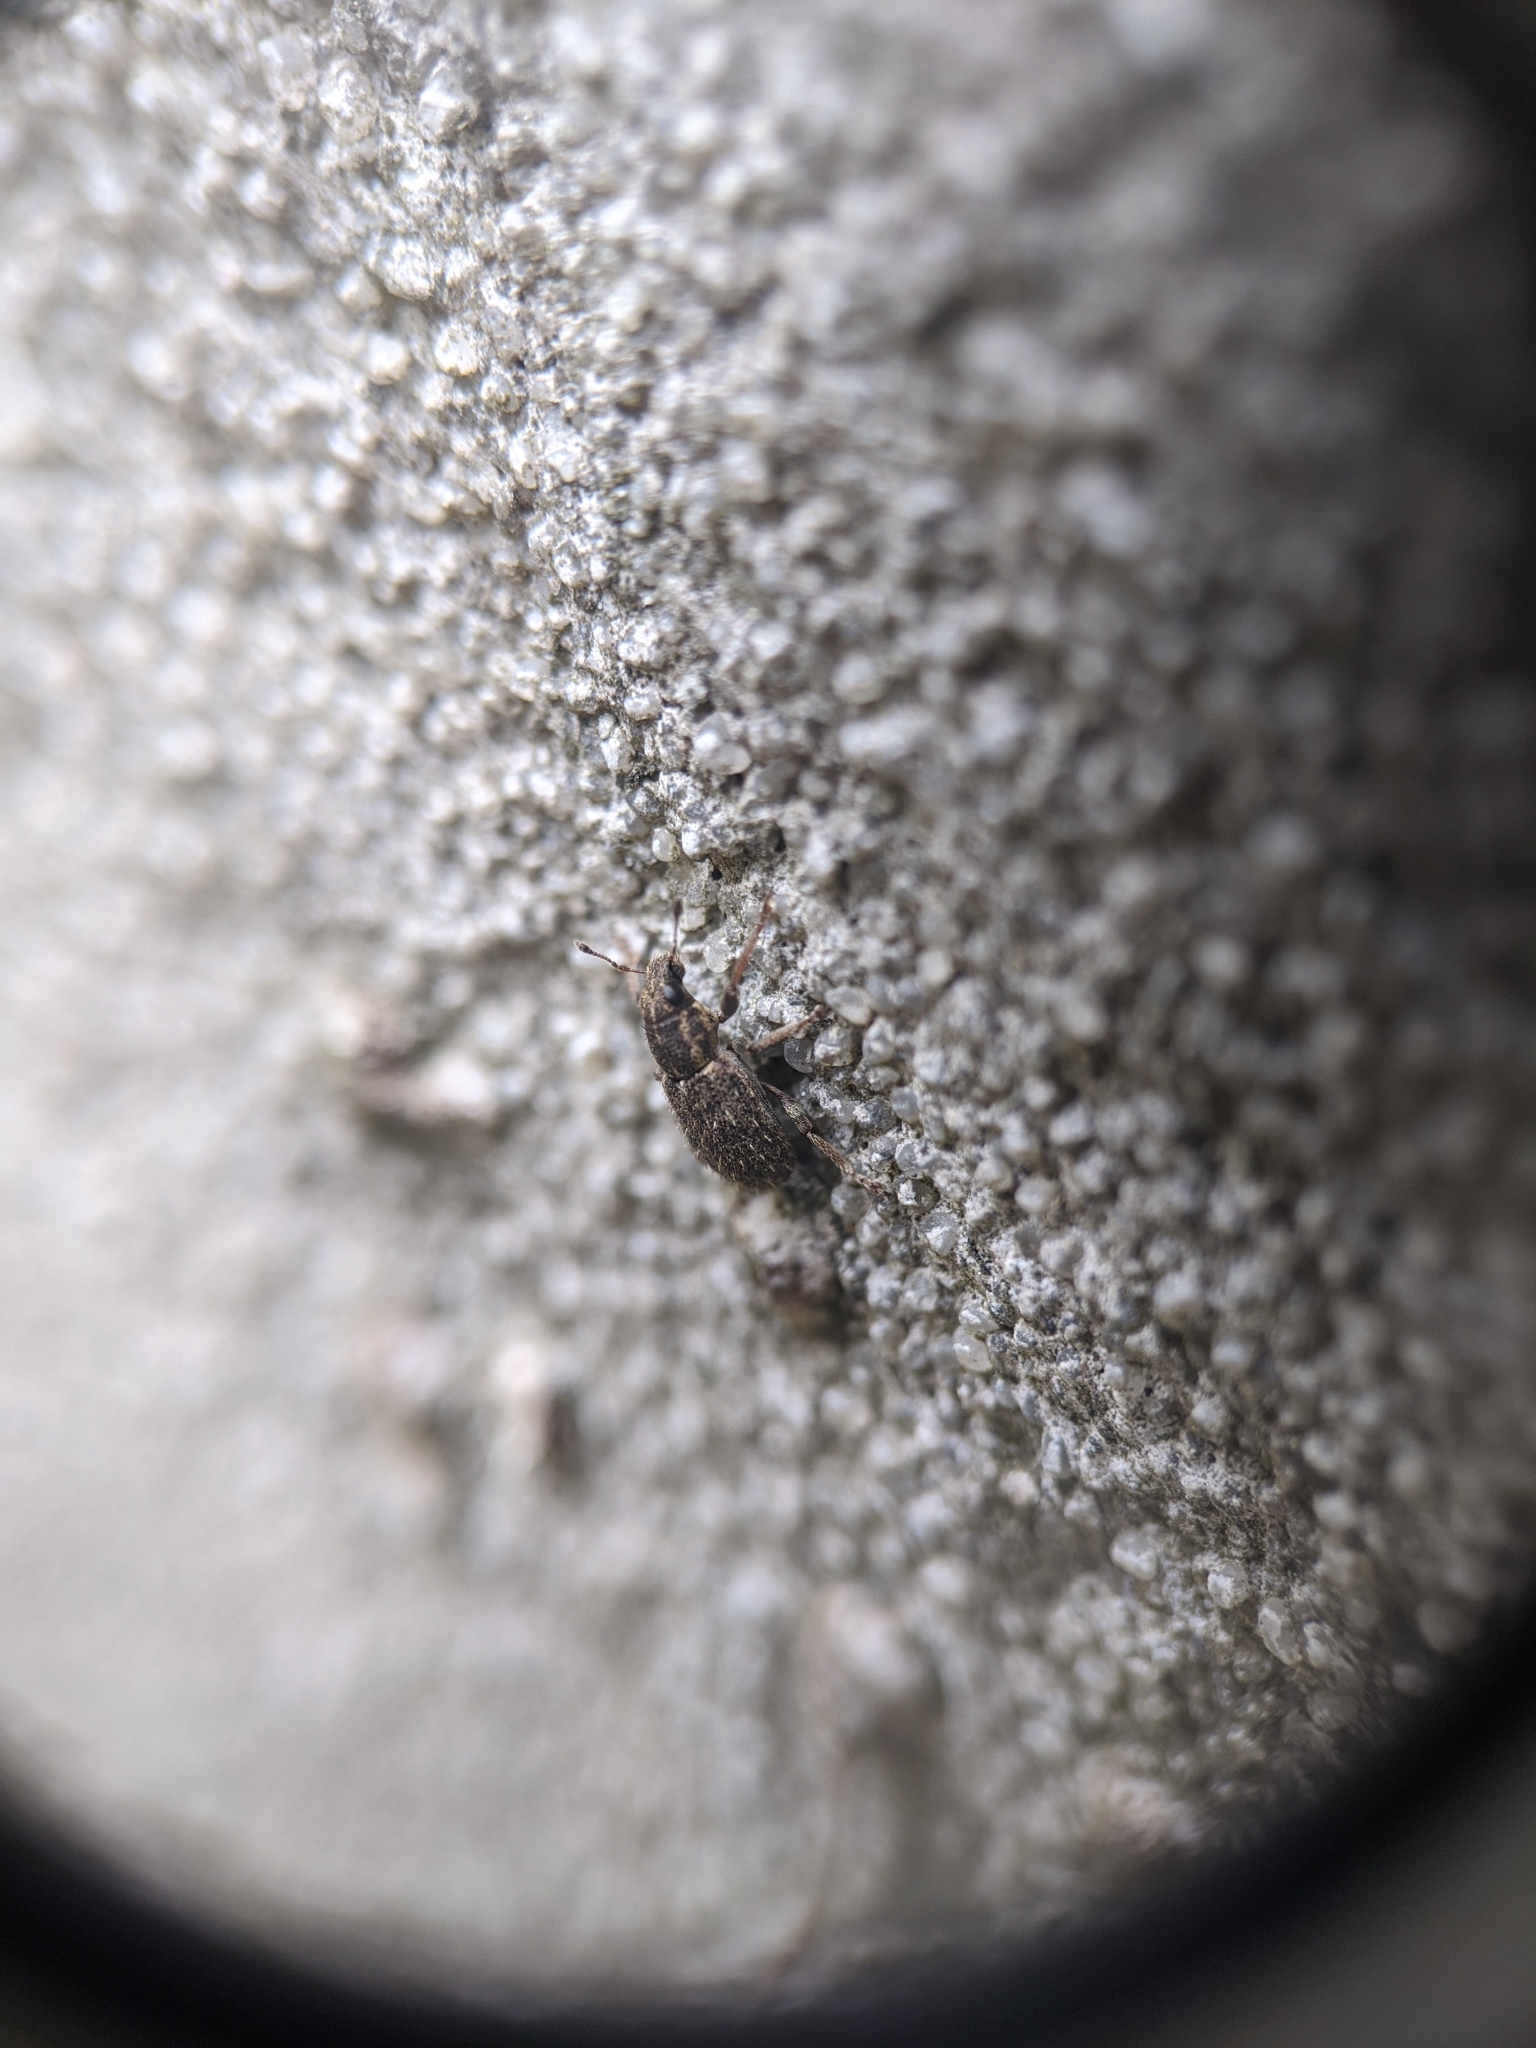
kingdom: Animalia
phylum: Arthropoda
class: Insecta
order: Coleoptera
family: Curculionidae
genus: Sitona
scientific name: Sitona hispidulus
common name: Clover weevil
